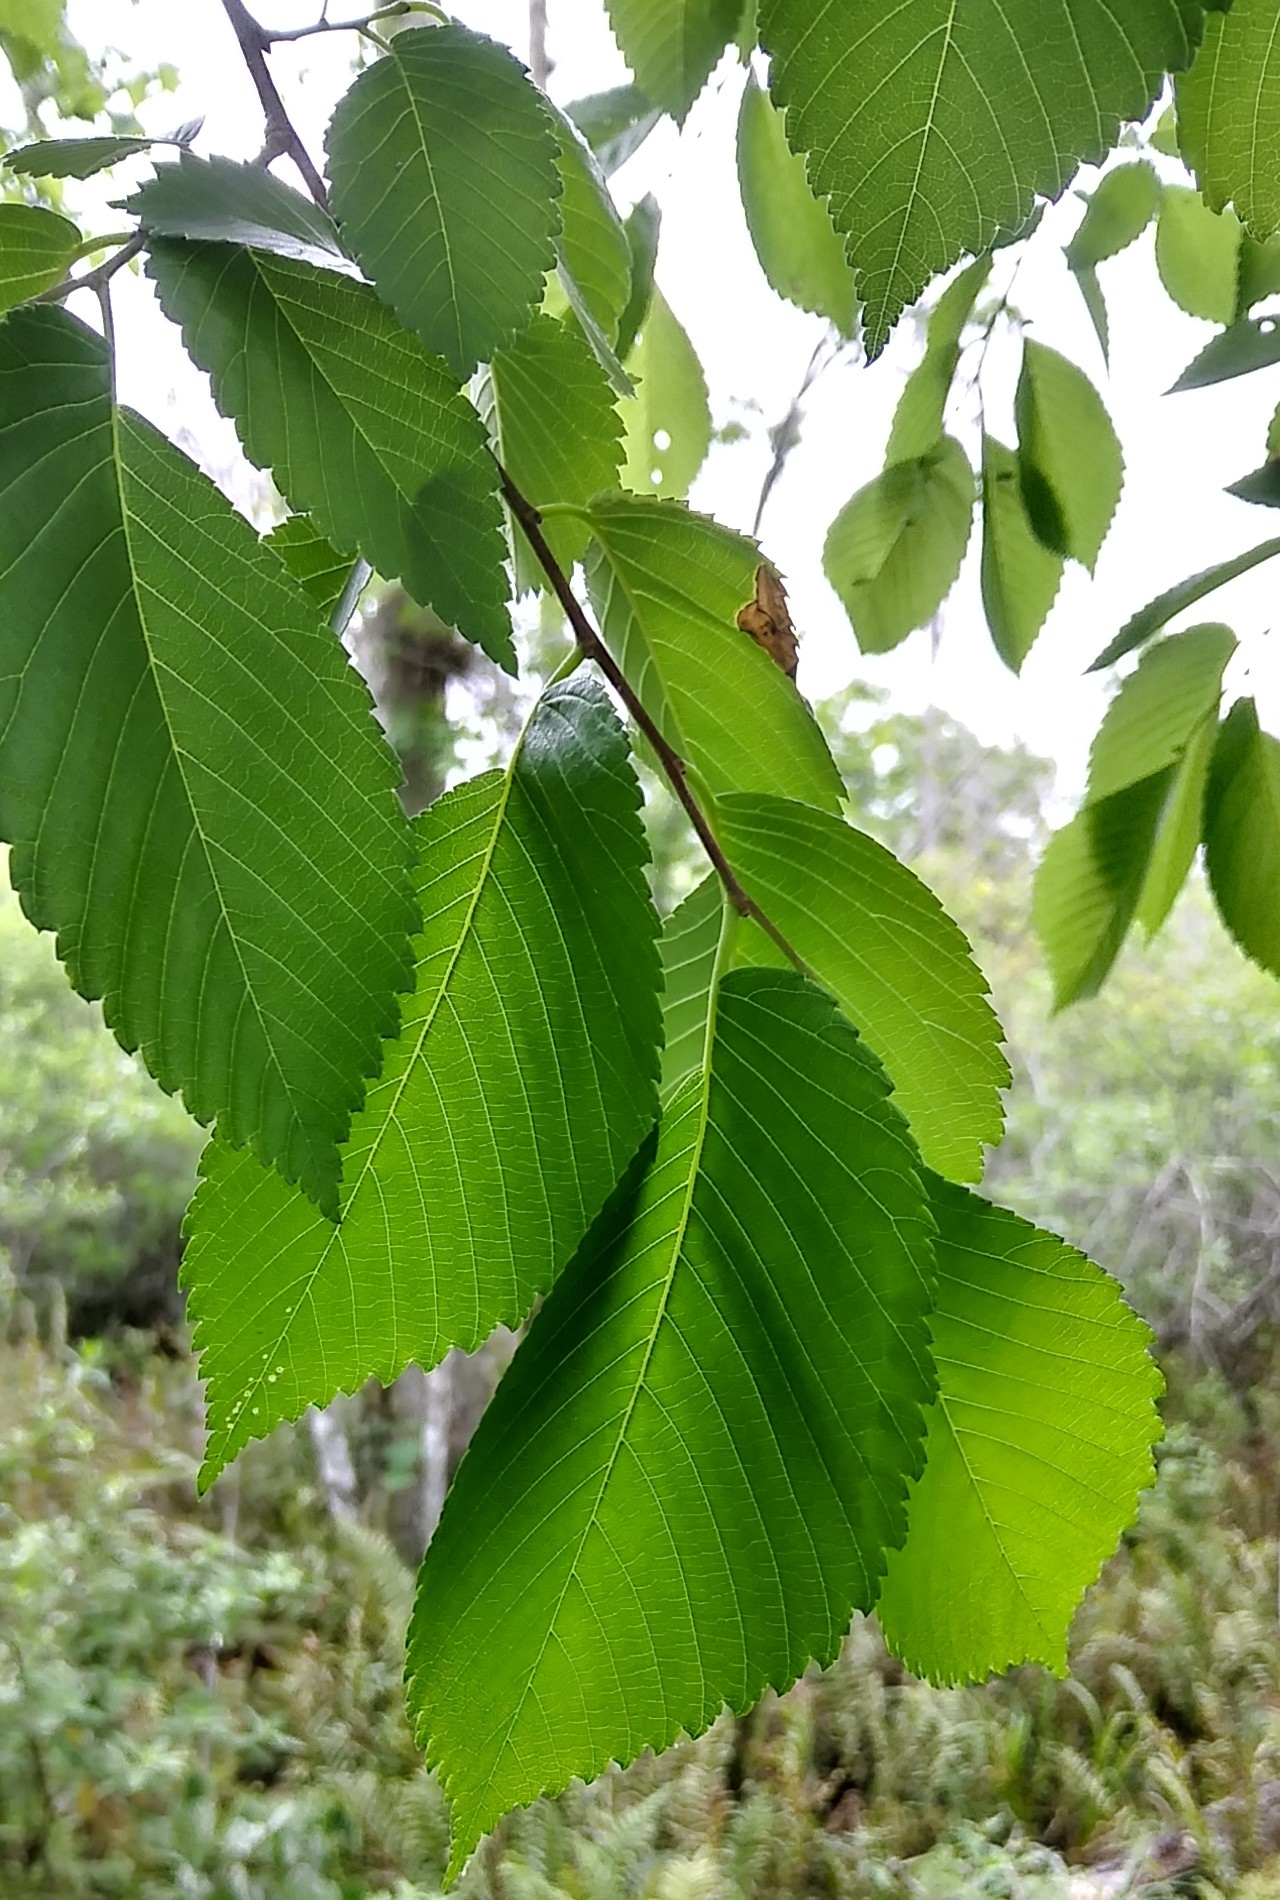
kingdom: Plantae
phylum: Tracheophyta
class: Magnoliopsida
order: Rosales
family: Ulmaceae
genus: Ulmus
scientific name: Ulmus americana
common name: American elm
